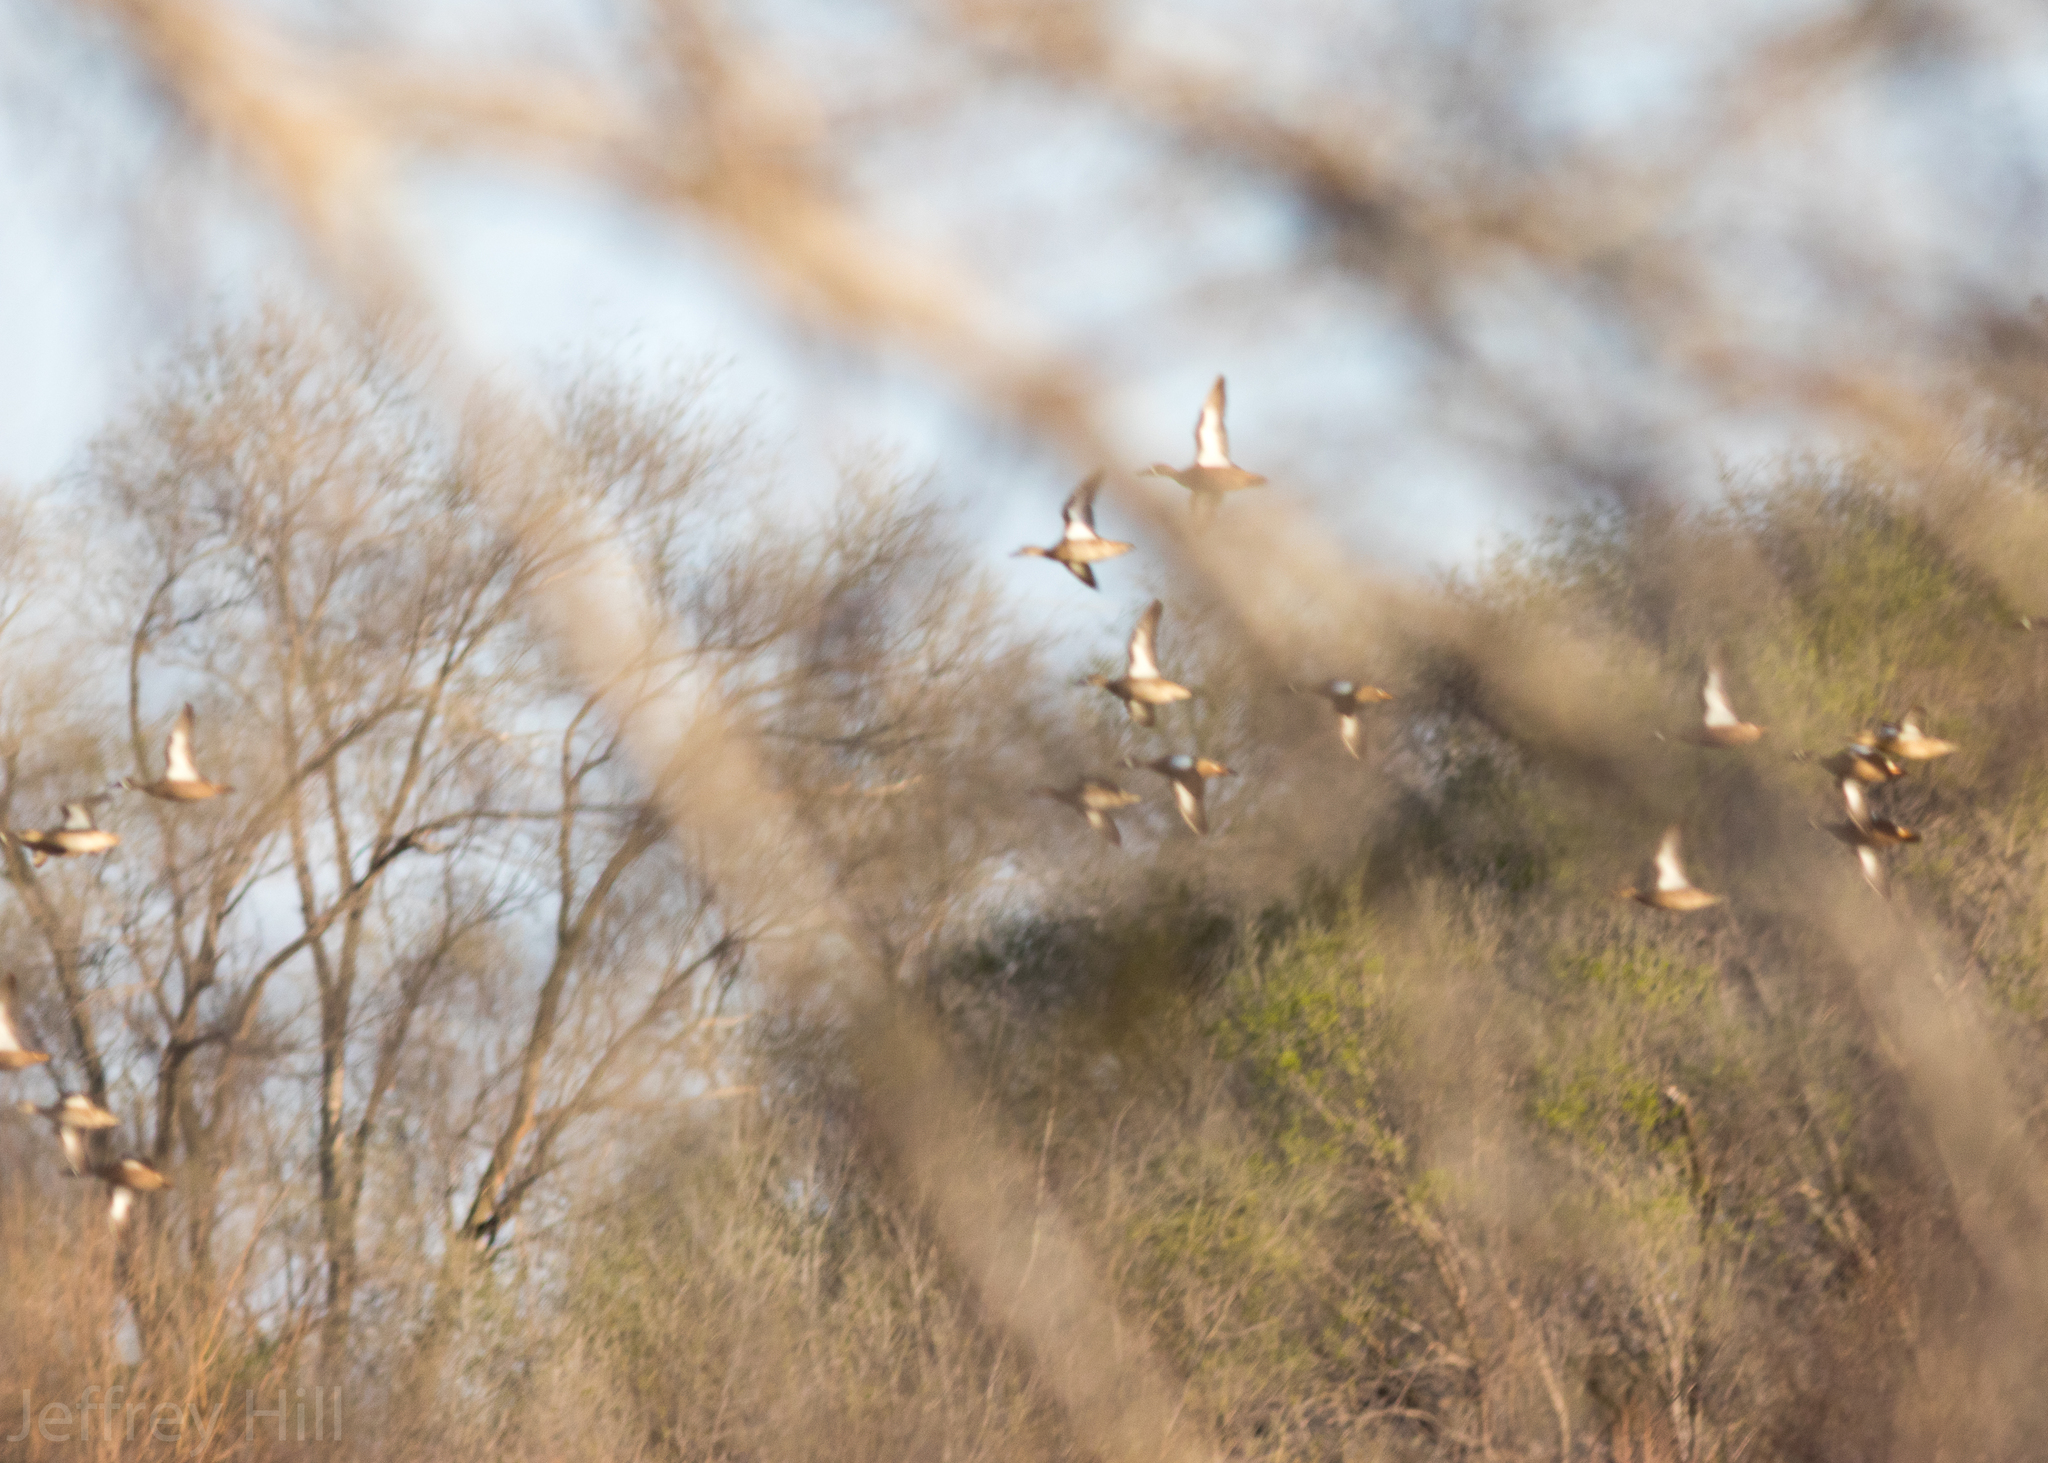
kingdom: Animalia
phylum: Chordata
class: Aves
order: Anseriformes
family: Anatidae
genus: Spatula
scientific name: Spatula discors
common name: Blue-winged teal
